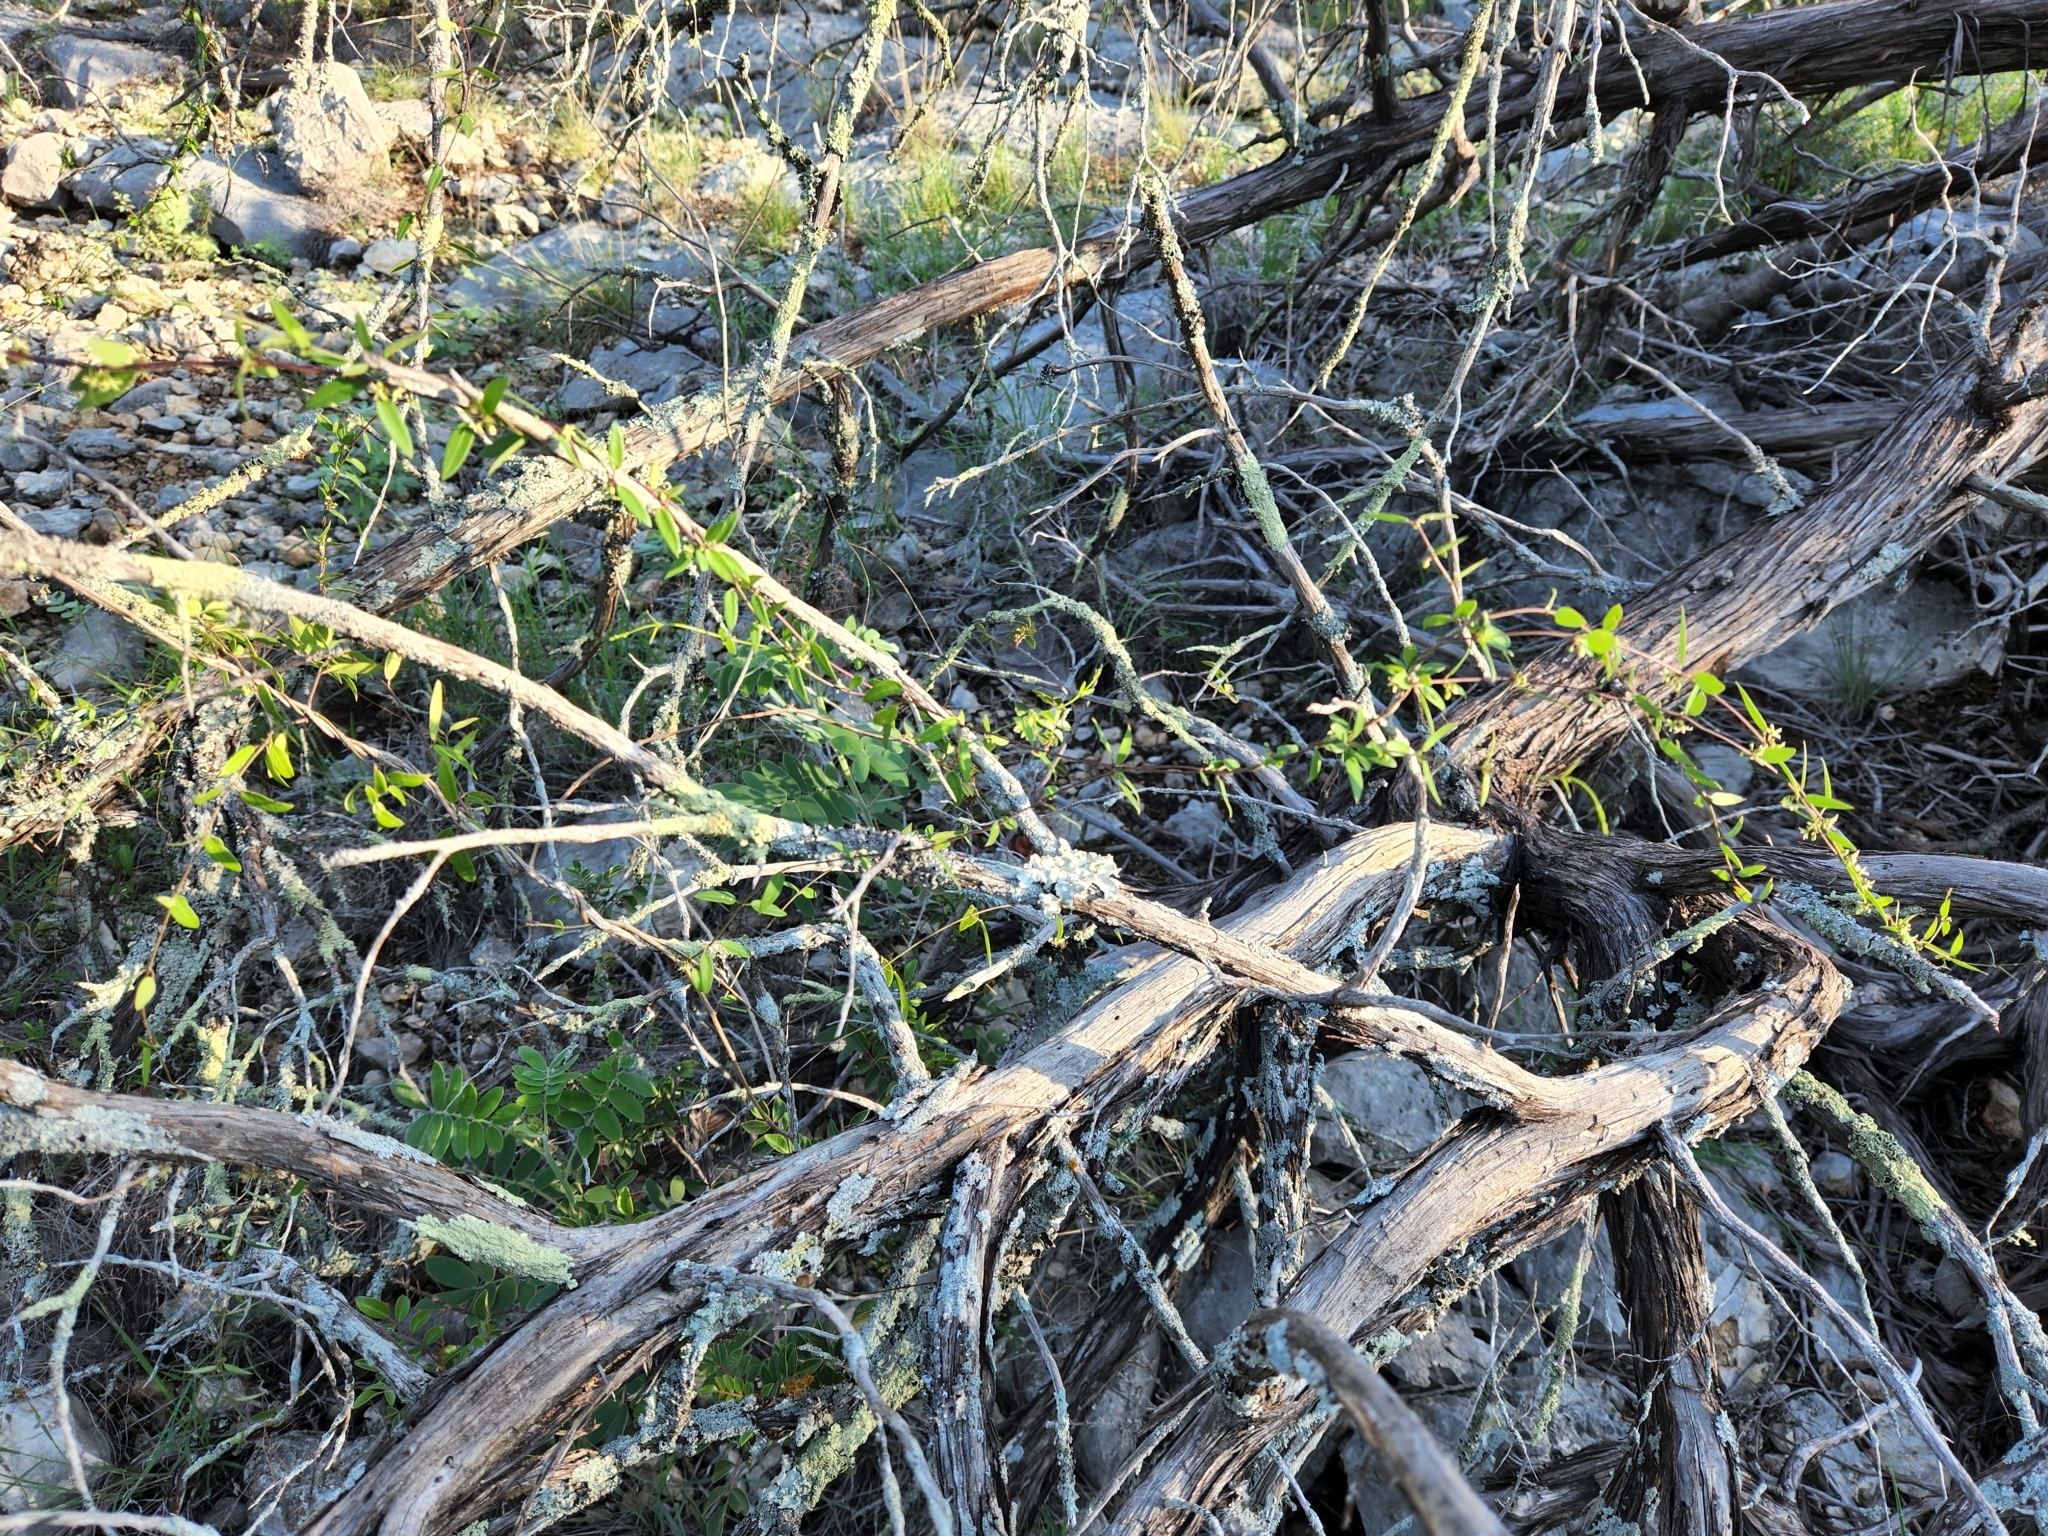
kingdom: Plantae
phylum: Tracheophyta
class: Magnoliopsida
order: Gentianales
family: Apocynaceae
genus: Metastelma
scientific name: Metastelma palmeri
